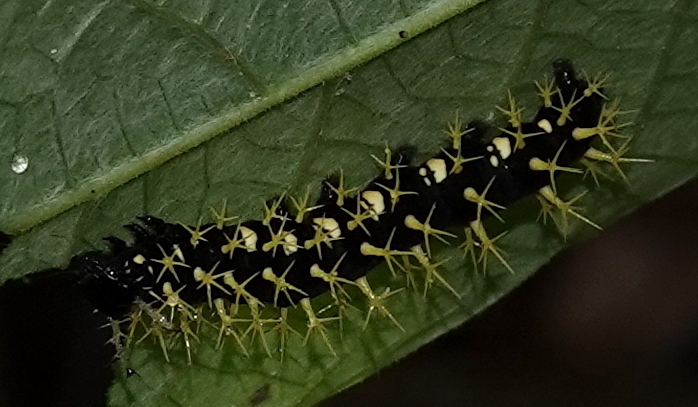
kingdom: Animalia
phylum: Arthropoda
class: Insecta
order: Lepidoptera
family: Nymphalidae
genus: Colobura
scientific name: Colobura dirce
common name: Dirce beauty
